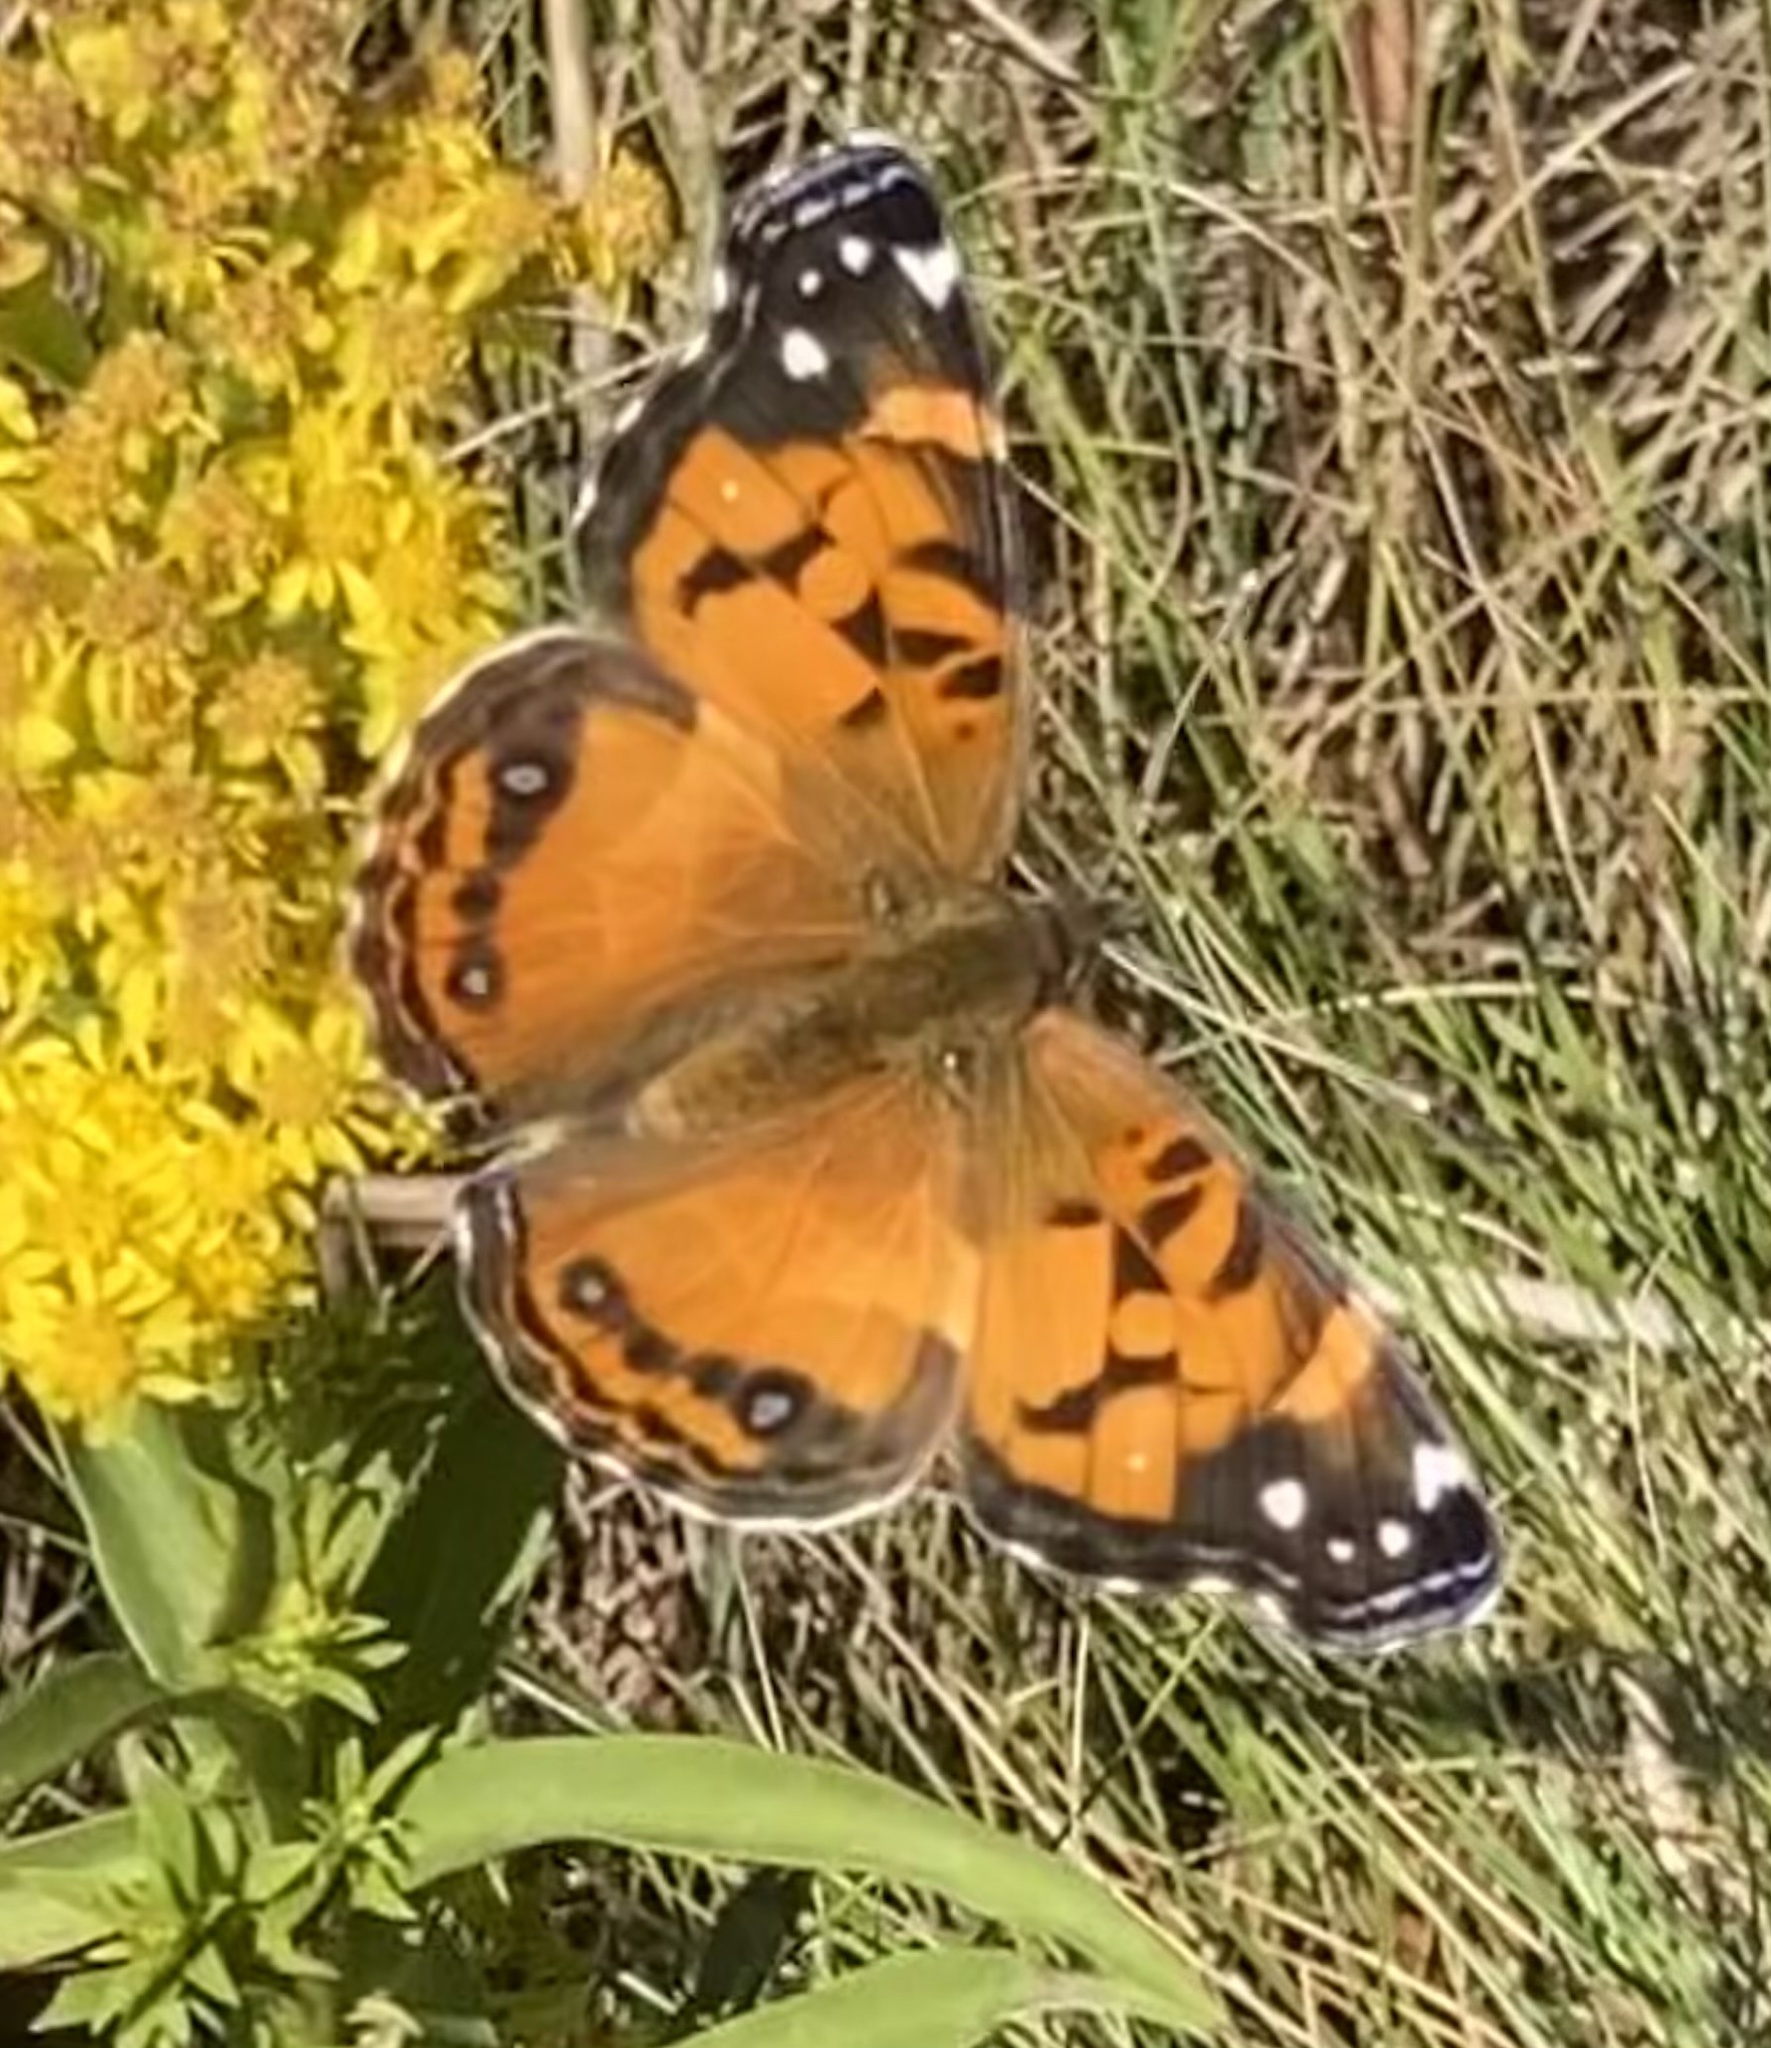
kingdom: Animalia
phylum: Arthropoda
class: Insecta
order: Lepidoptera
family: Nymphalidae
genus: Vanessa
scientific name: Vanessa virginiensis
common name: American lady
